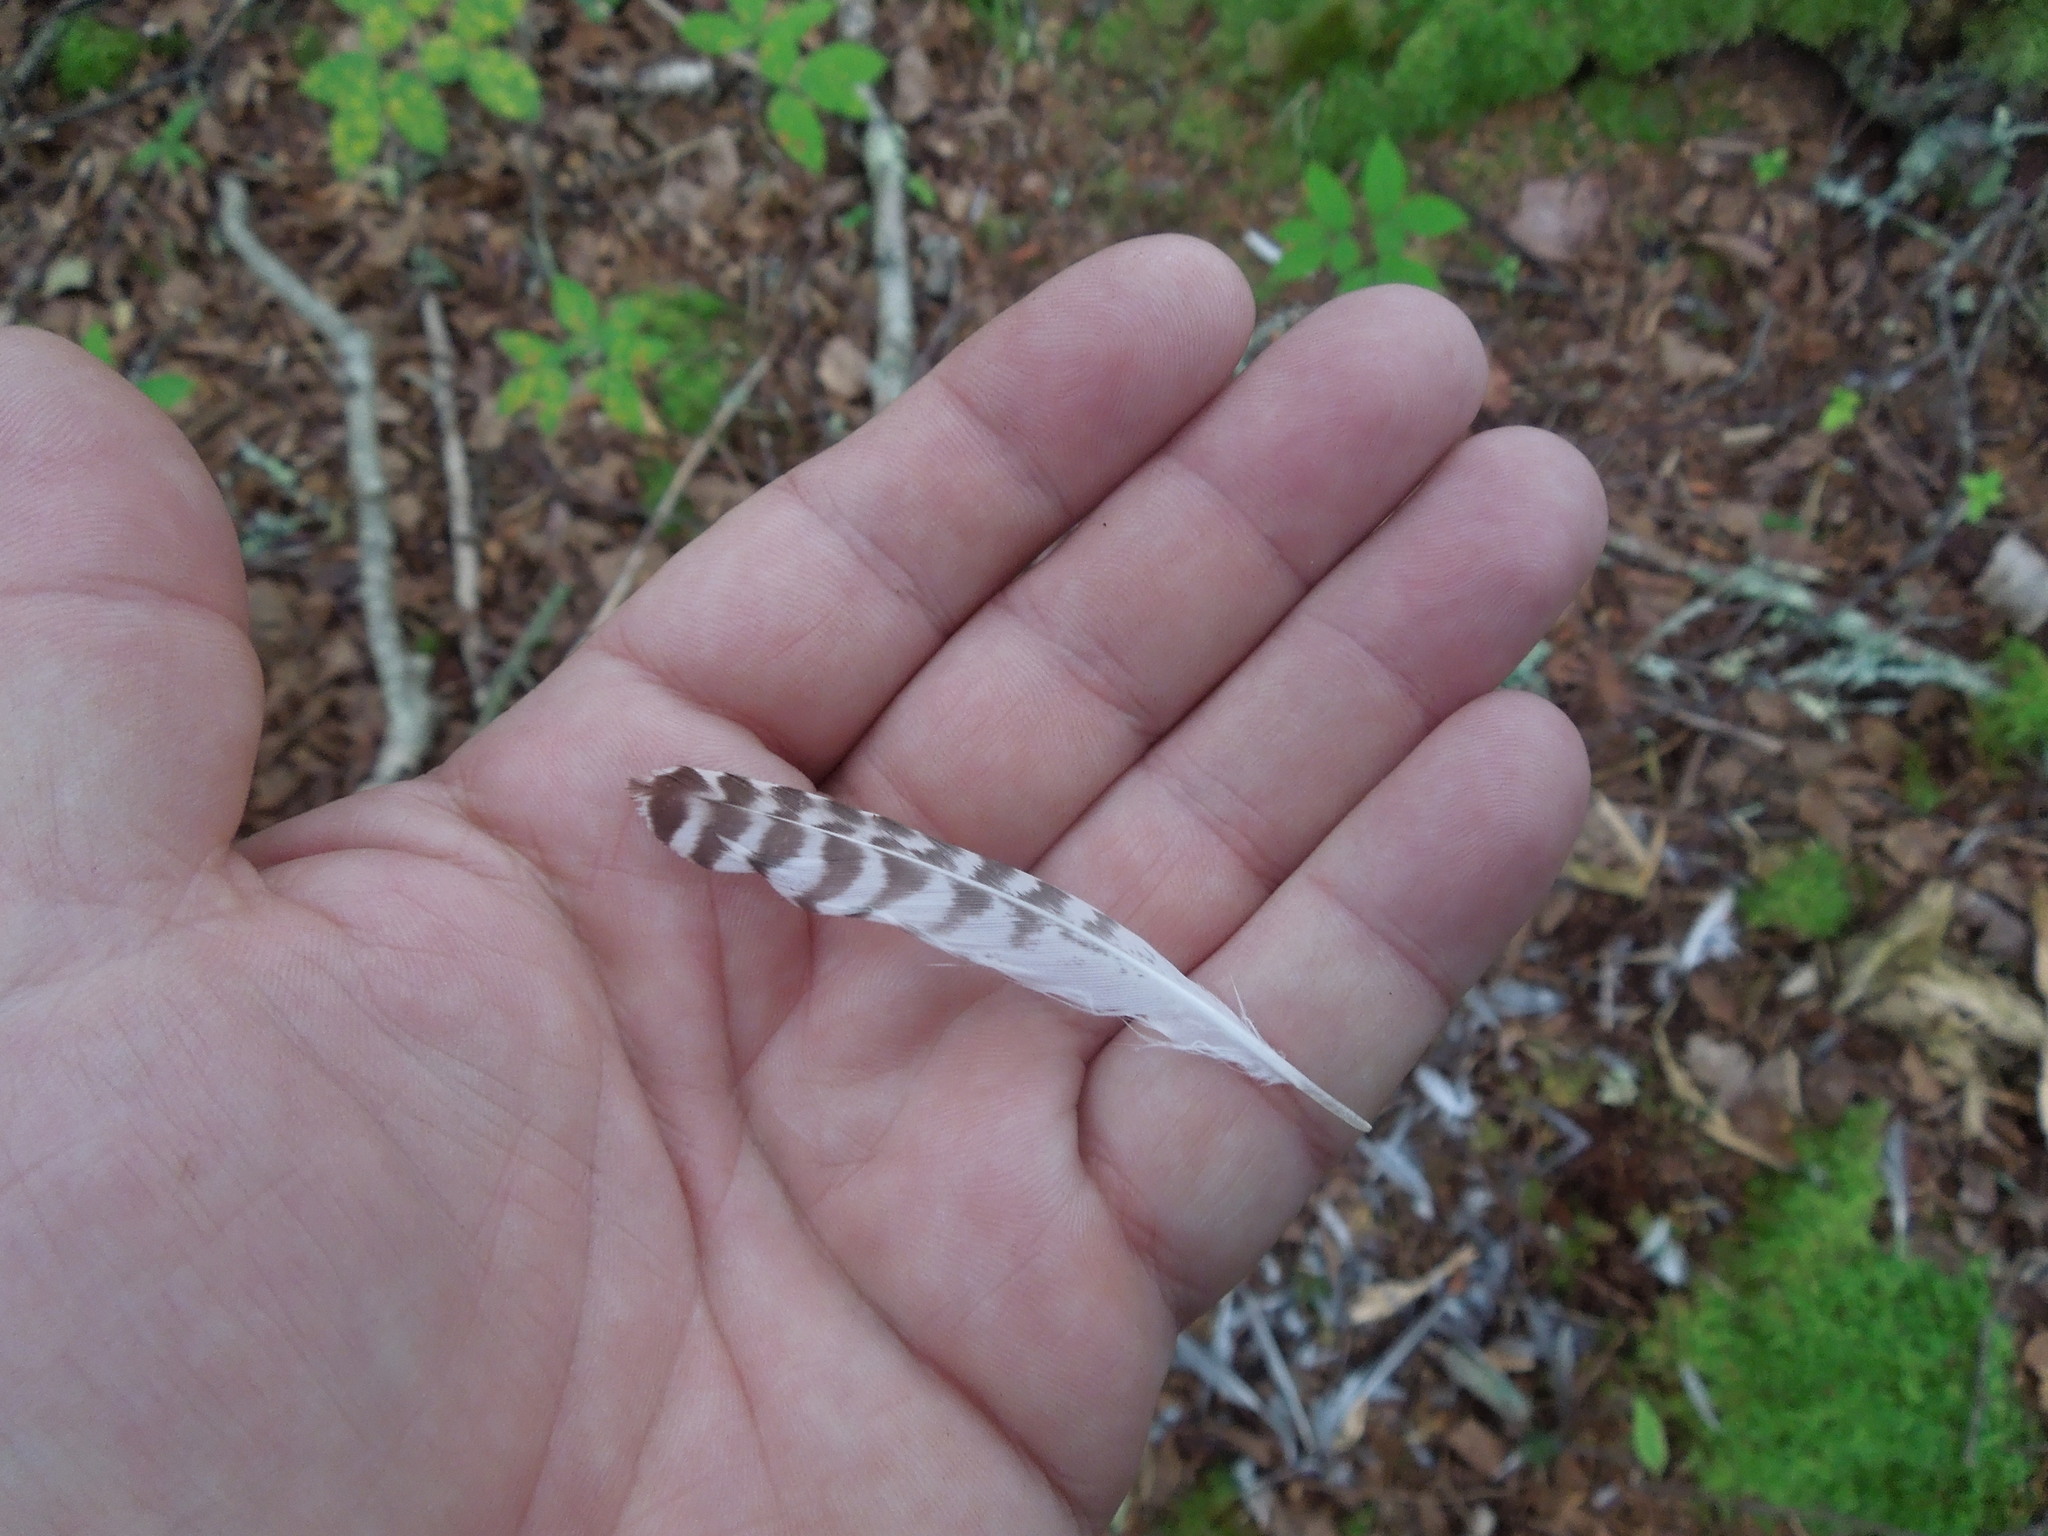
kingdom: Animalia
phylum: Chordata
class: Aves
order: Charadriiformes
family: Scolopacidae
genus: Tringa
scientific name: Tringa
